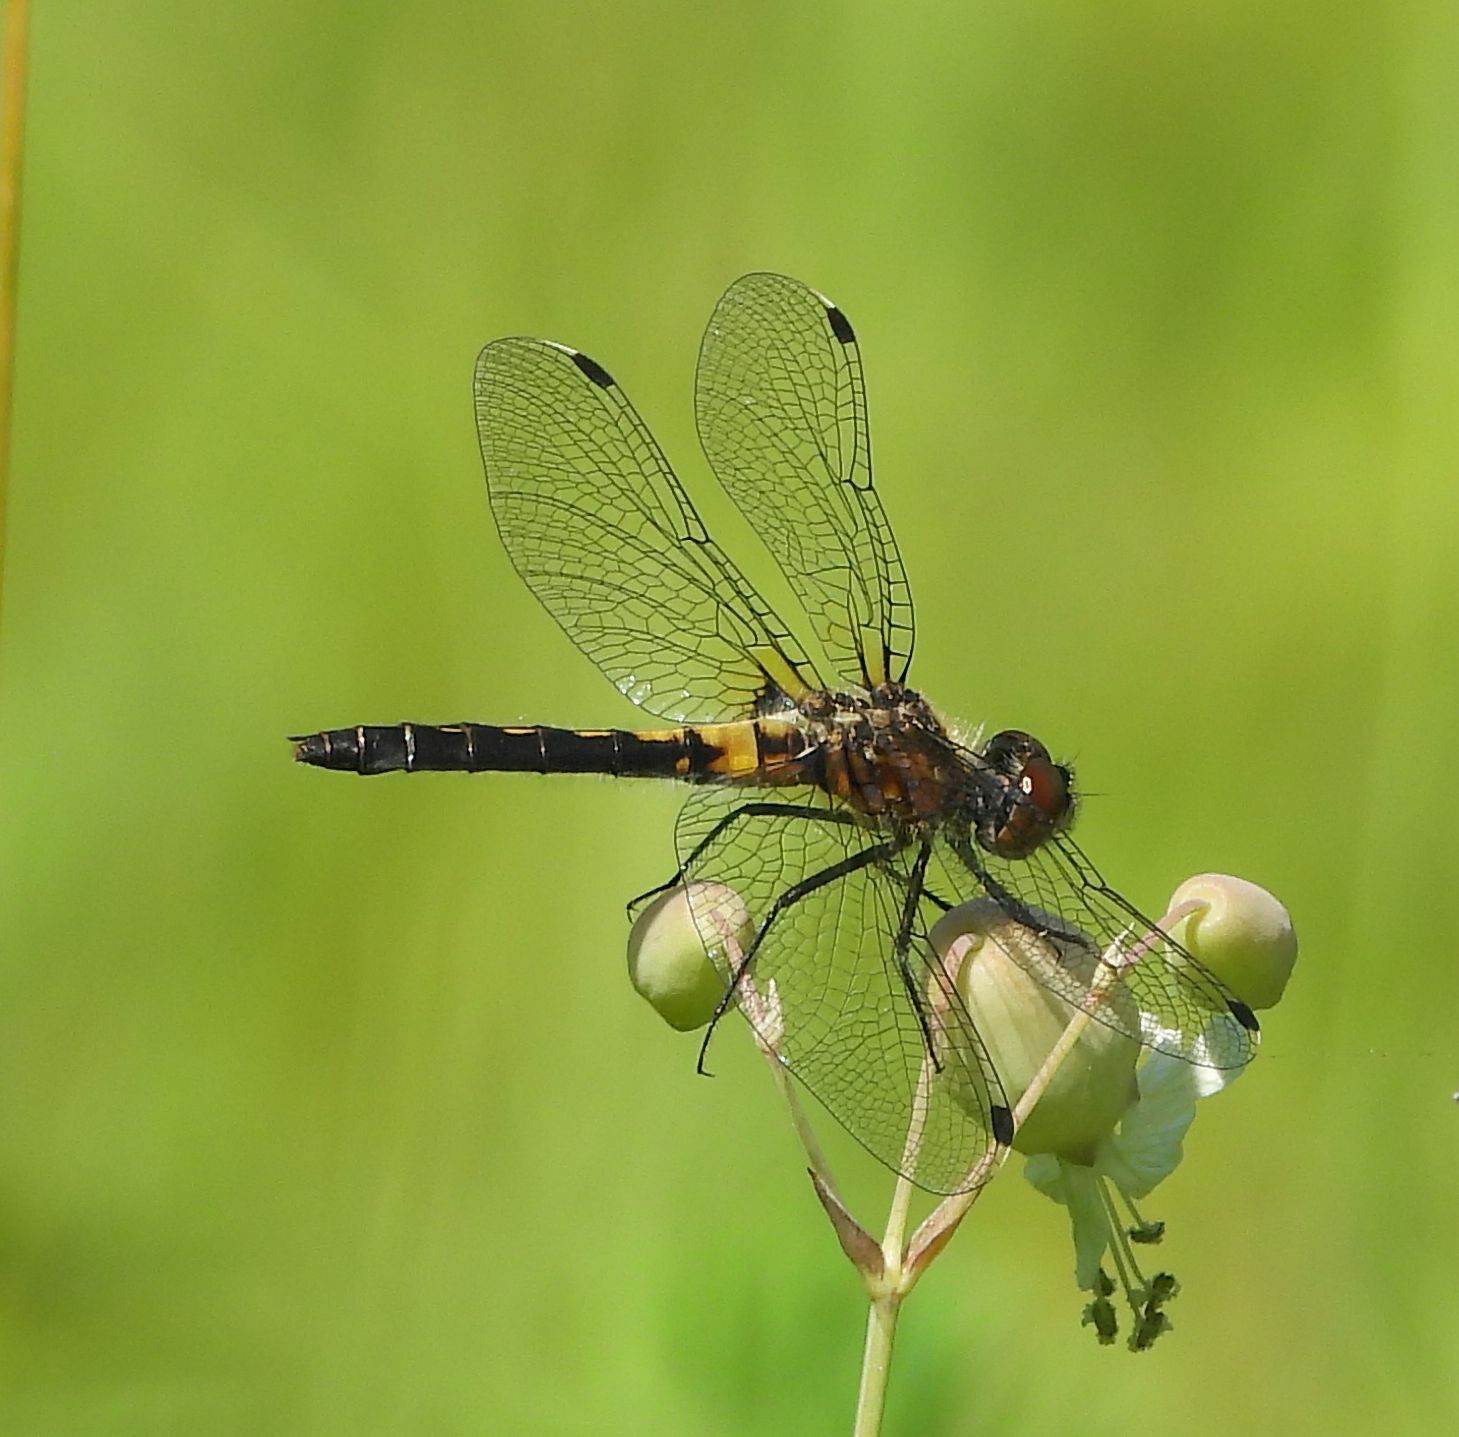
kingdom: Animalia
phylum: Arthropoda
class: Insecta
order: Odonata
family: Libellulidae
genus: Leucorrhinia
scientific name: Leucorrhinia frigida
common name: Frosted whiteface
